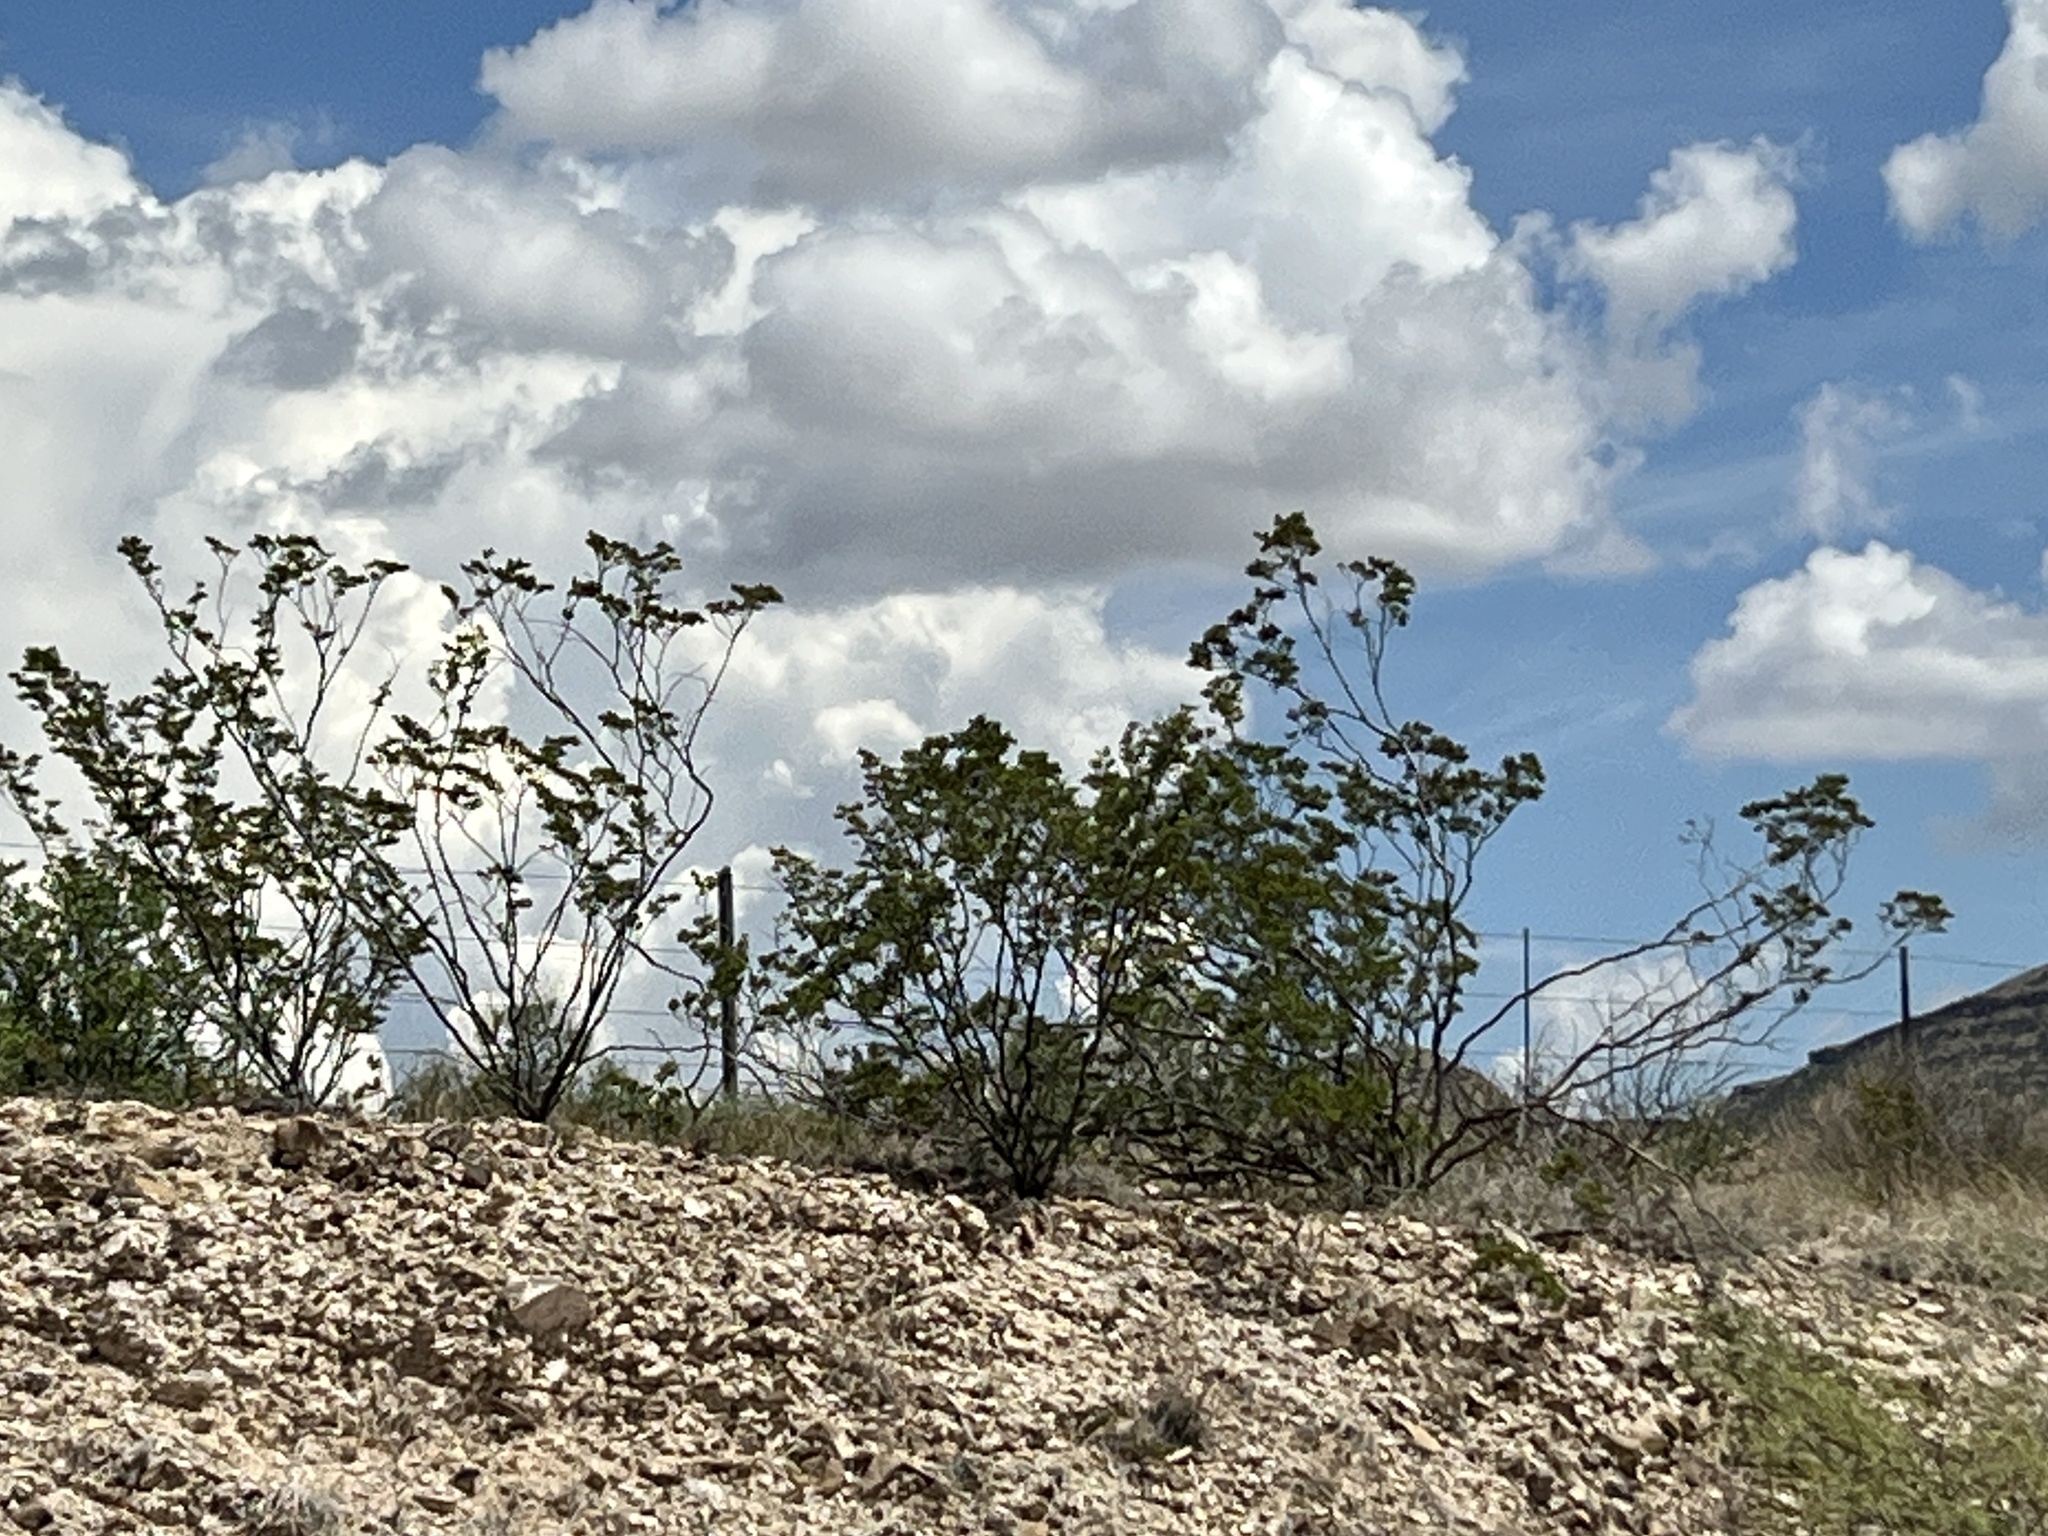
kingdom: Plantae
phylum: Tracheophyta
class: Magnoliopsida
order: Zygophyllales
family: Zygophyllaceae
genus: Larrea
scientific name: Larrea tridentata
